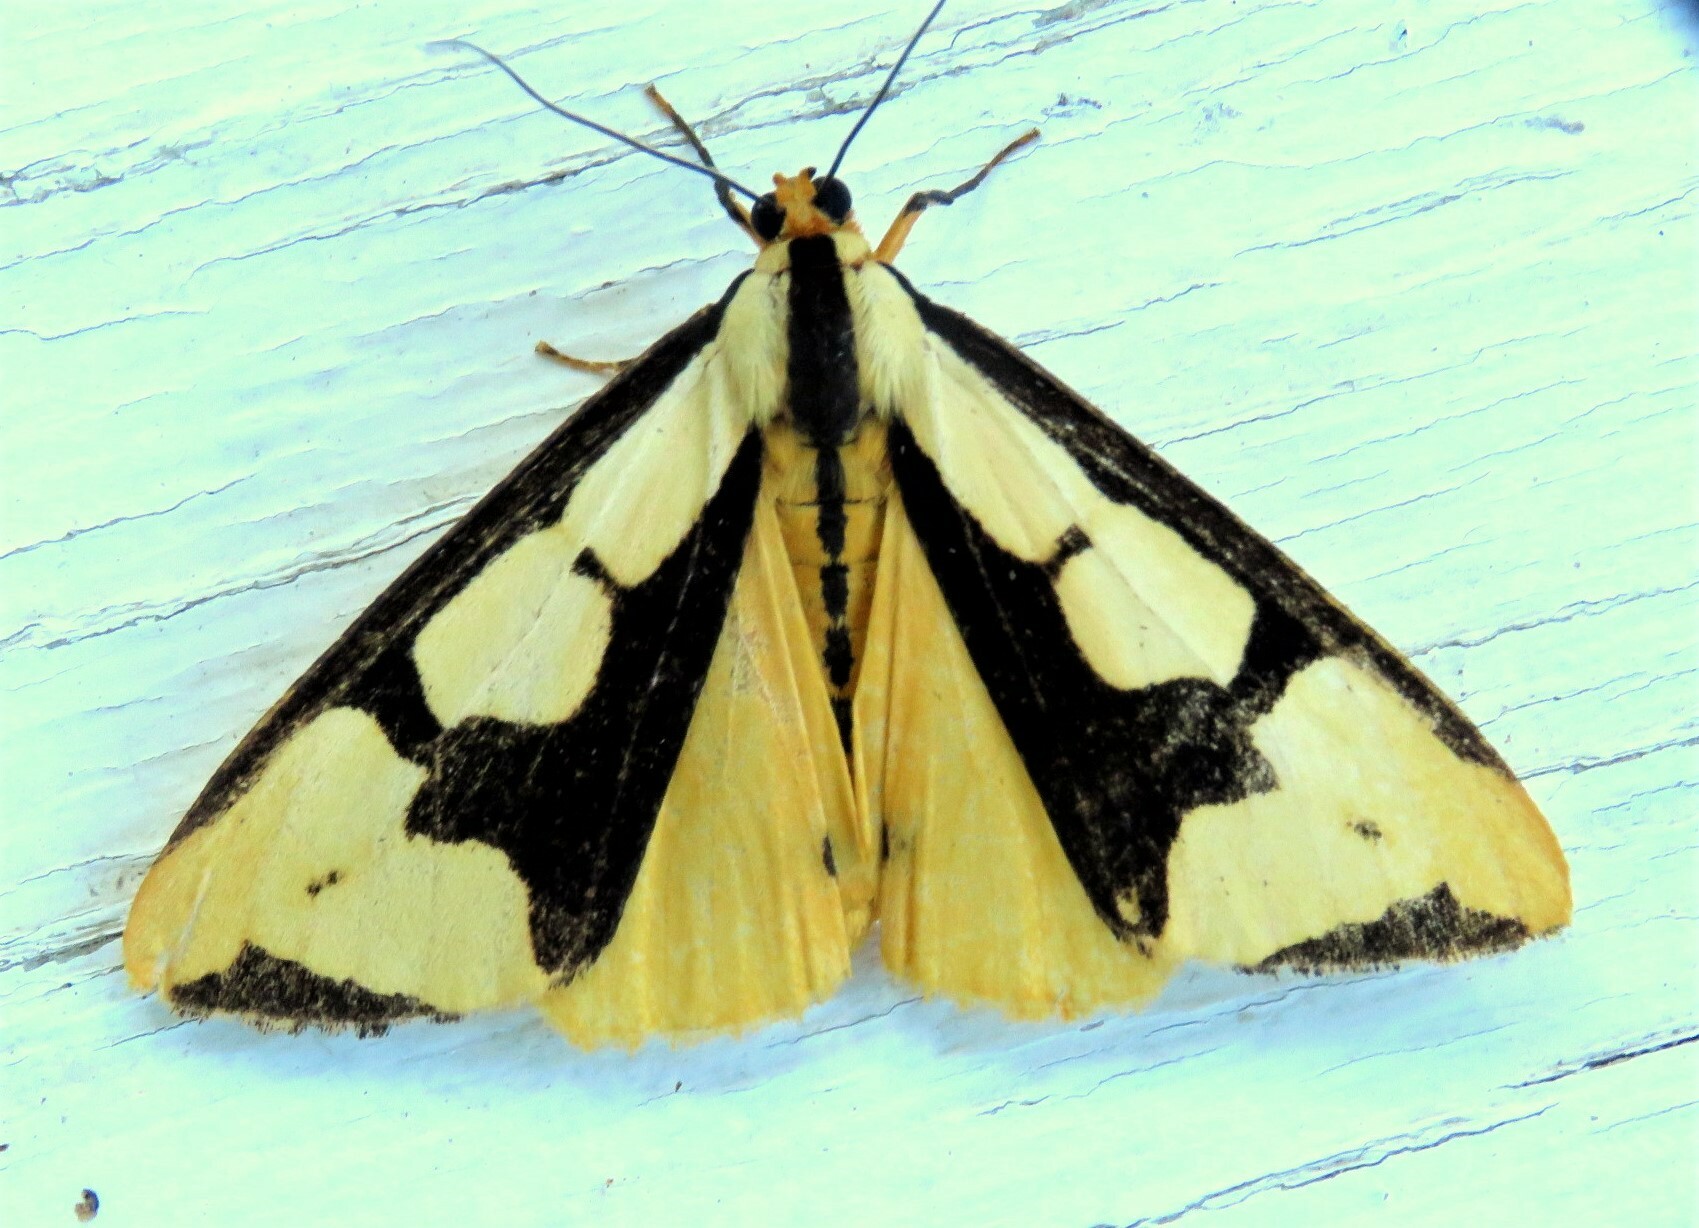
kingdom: Animalia
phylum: Arthropoda
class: Insecta
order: Lepidoptera
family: Erebidae
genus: Haploa
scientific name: Haploa clymene
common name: Clymene moth
